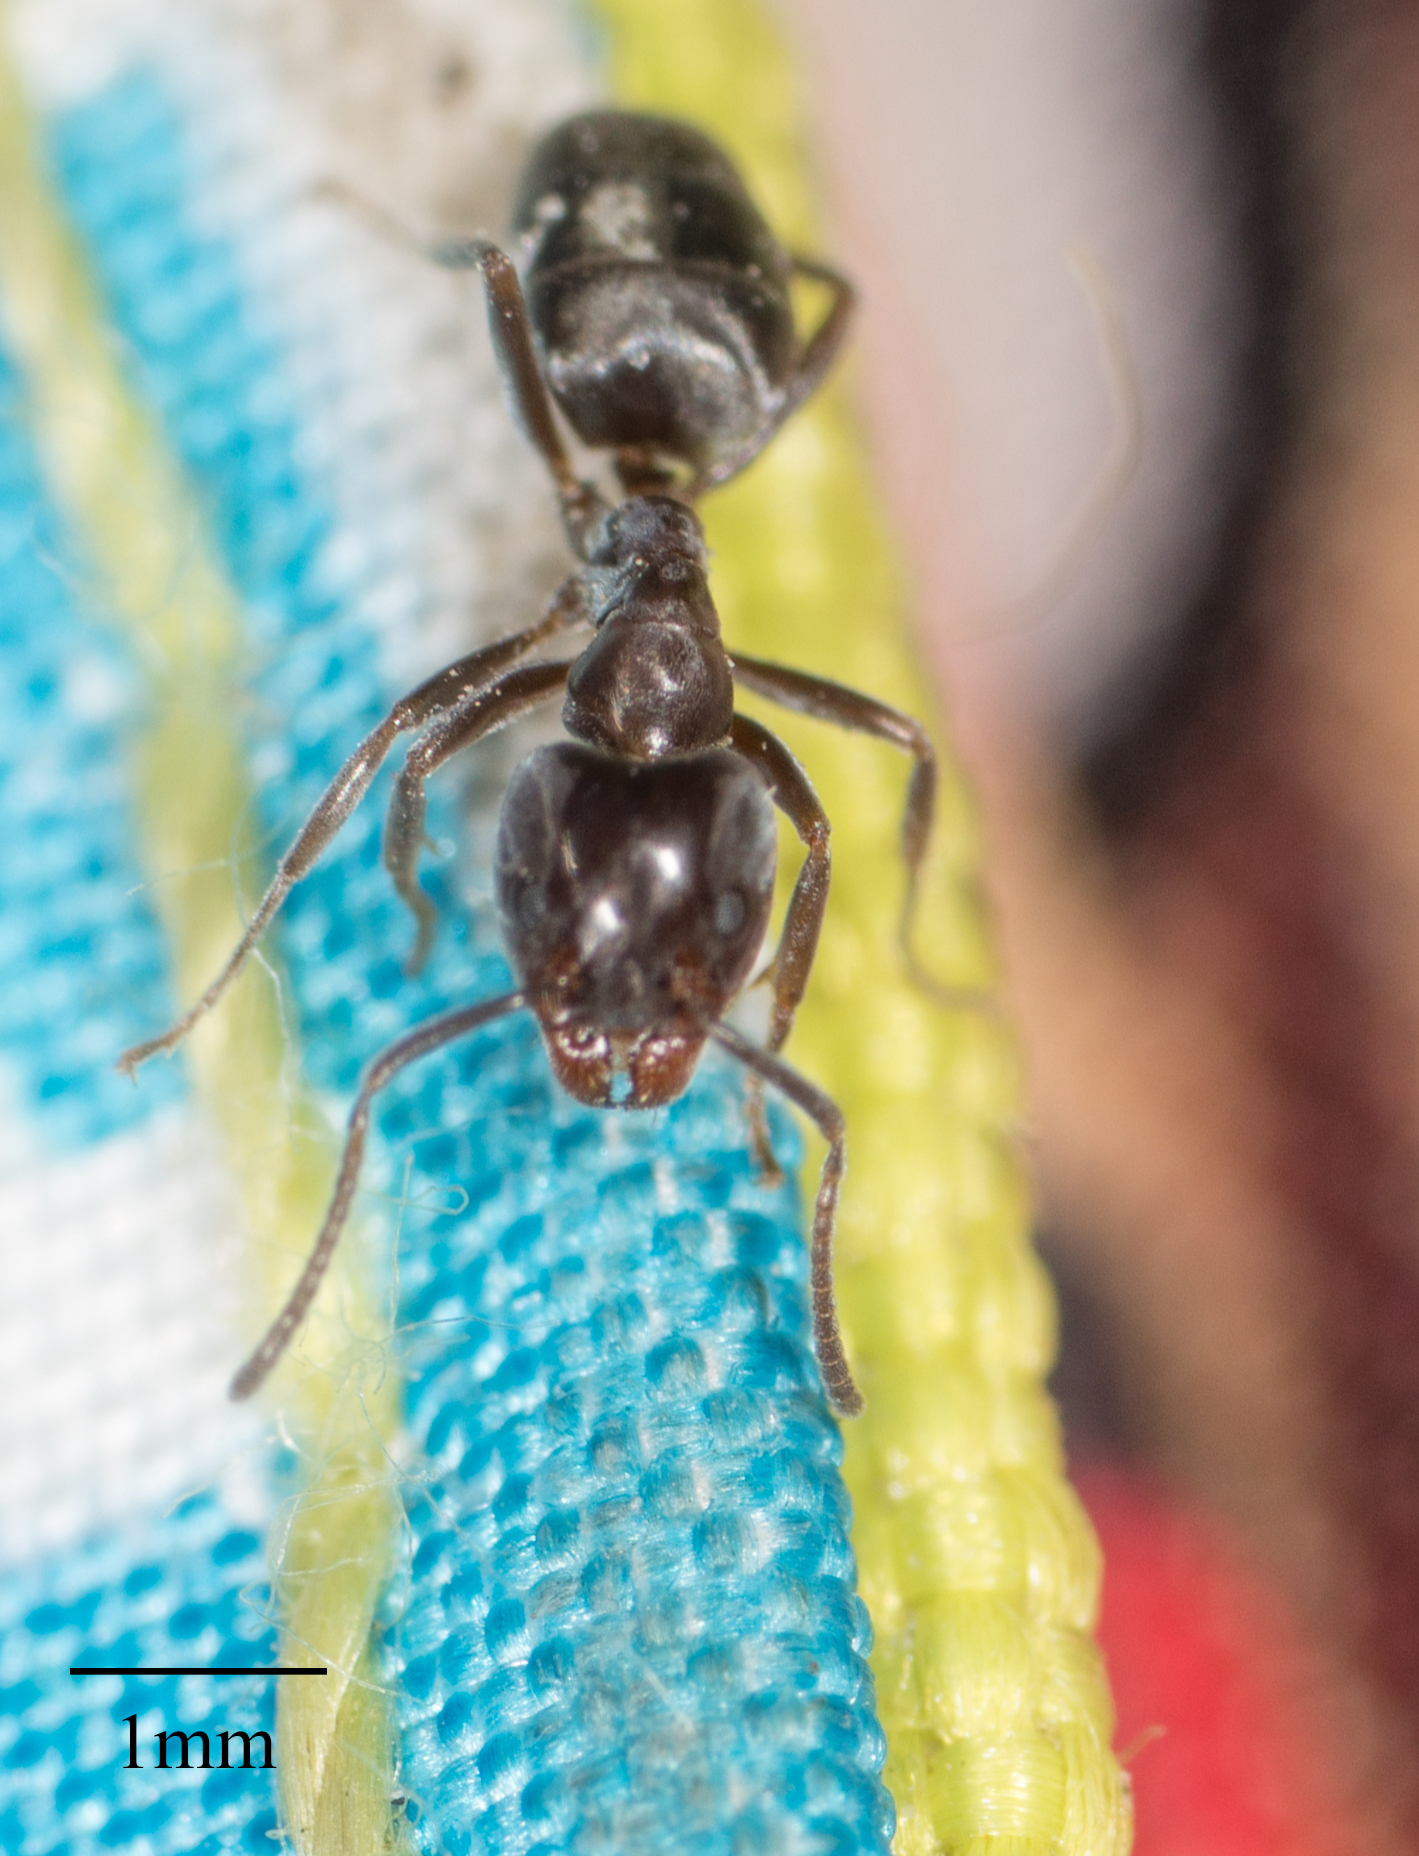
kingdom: Animalia
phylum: Arthropoda
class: Insecta
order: Hymenoptera
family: Formicidae
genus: Liometopum
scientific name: Liometopum luctuosum
